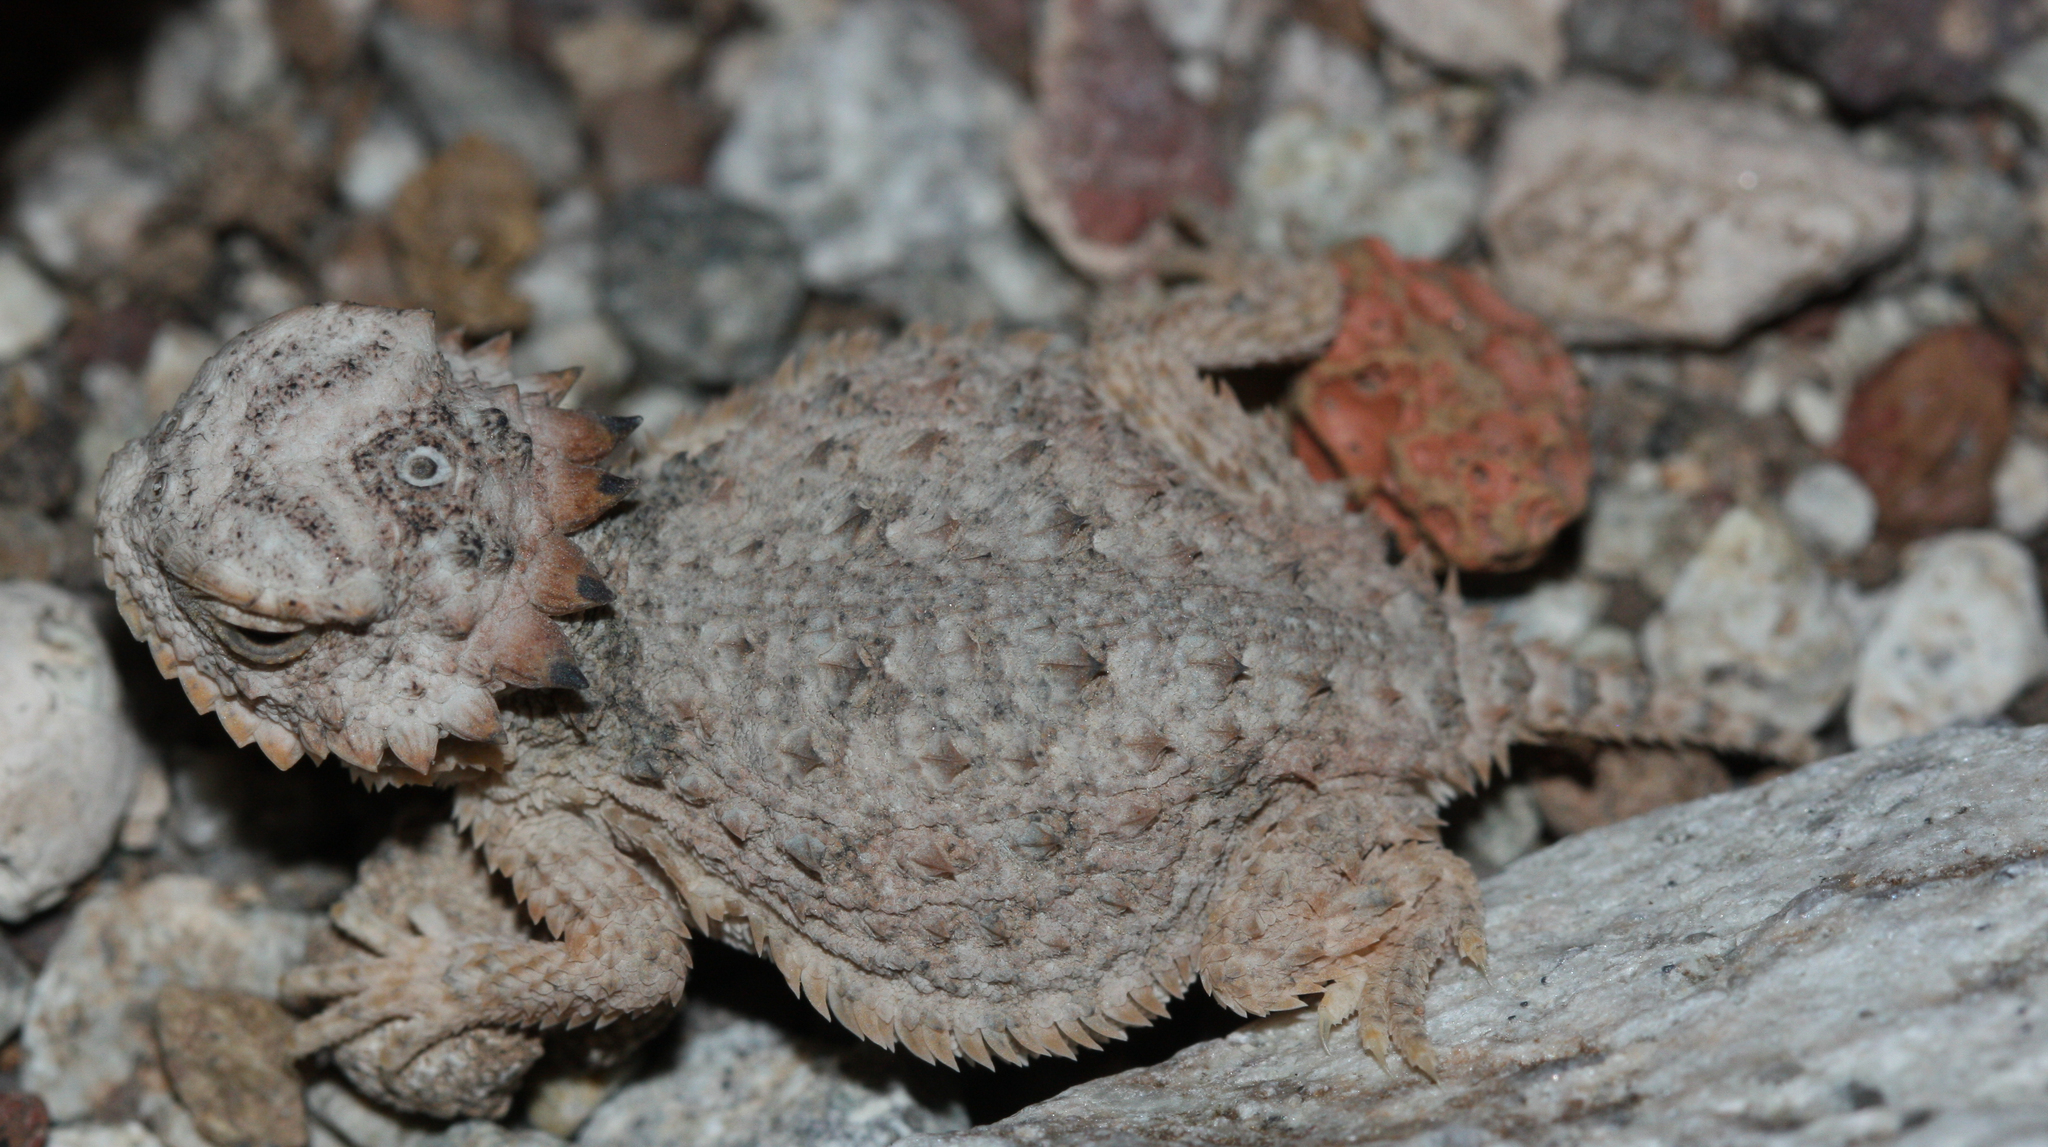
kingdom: Animalia
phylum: Chordata
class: Squamata
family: Phrynosomatidae
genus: Phrynosoma
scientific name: Phrynosoma solare
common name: Regal horned lizard
